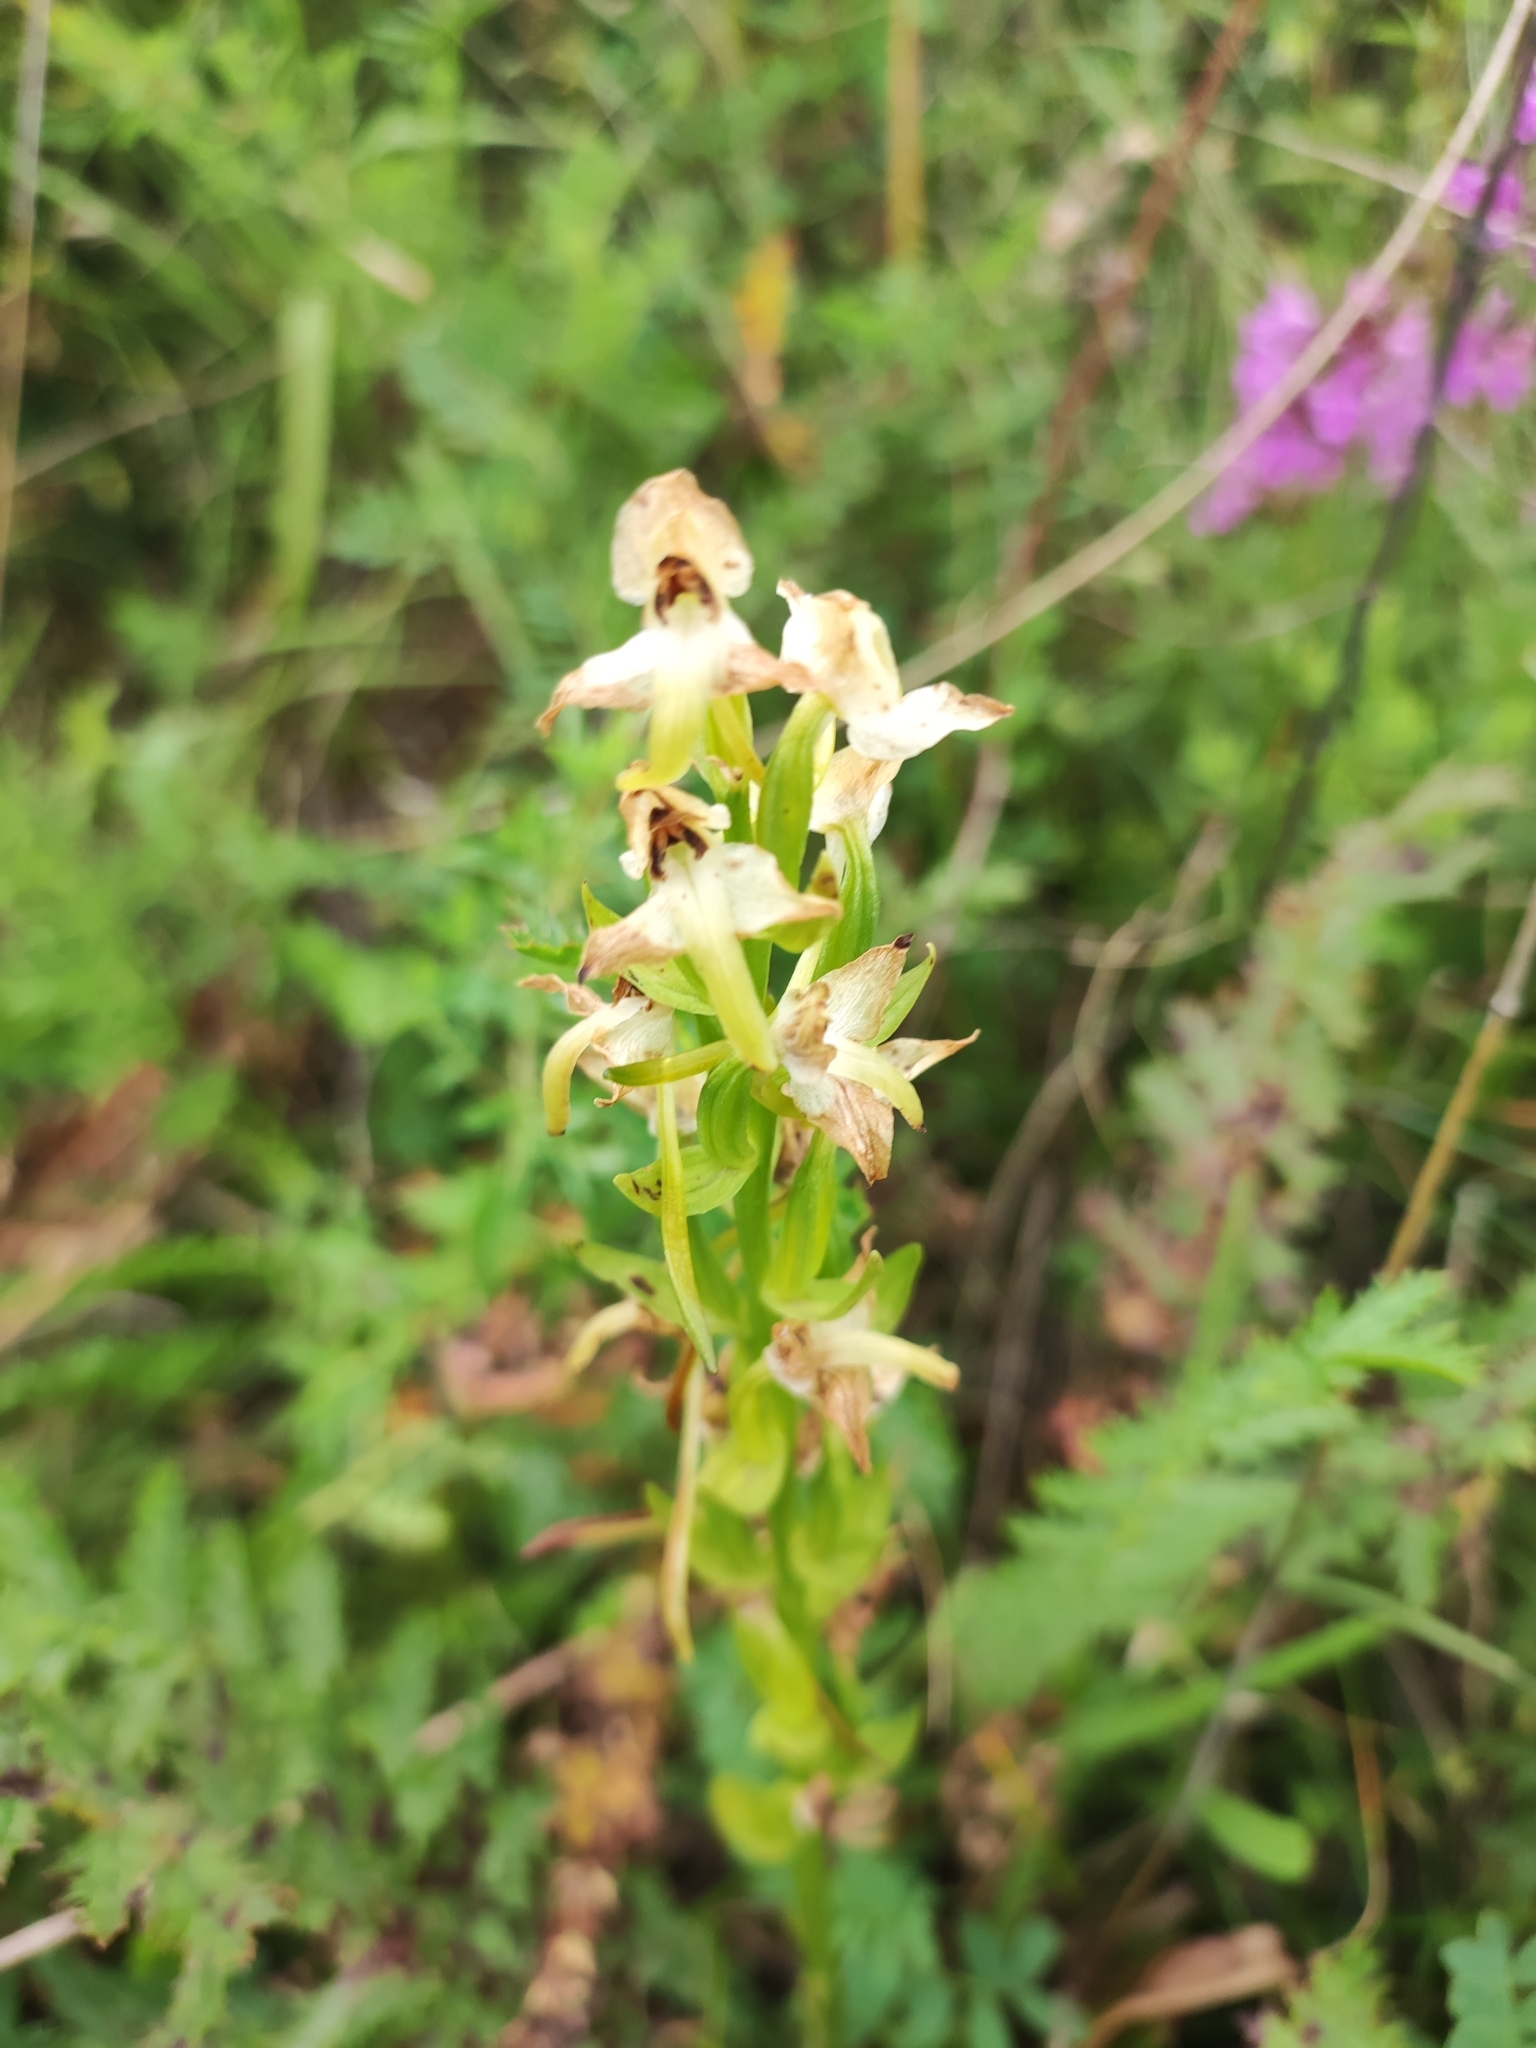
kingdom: Plantae
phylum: Tracheophyta
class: Liliopsida
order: Asparagales
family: Orchidaceae
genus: Platanthera
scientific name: Platanthera chlorantha
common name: Greater butterfly-orchid
